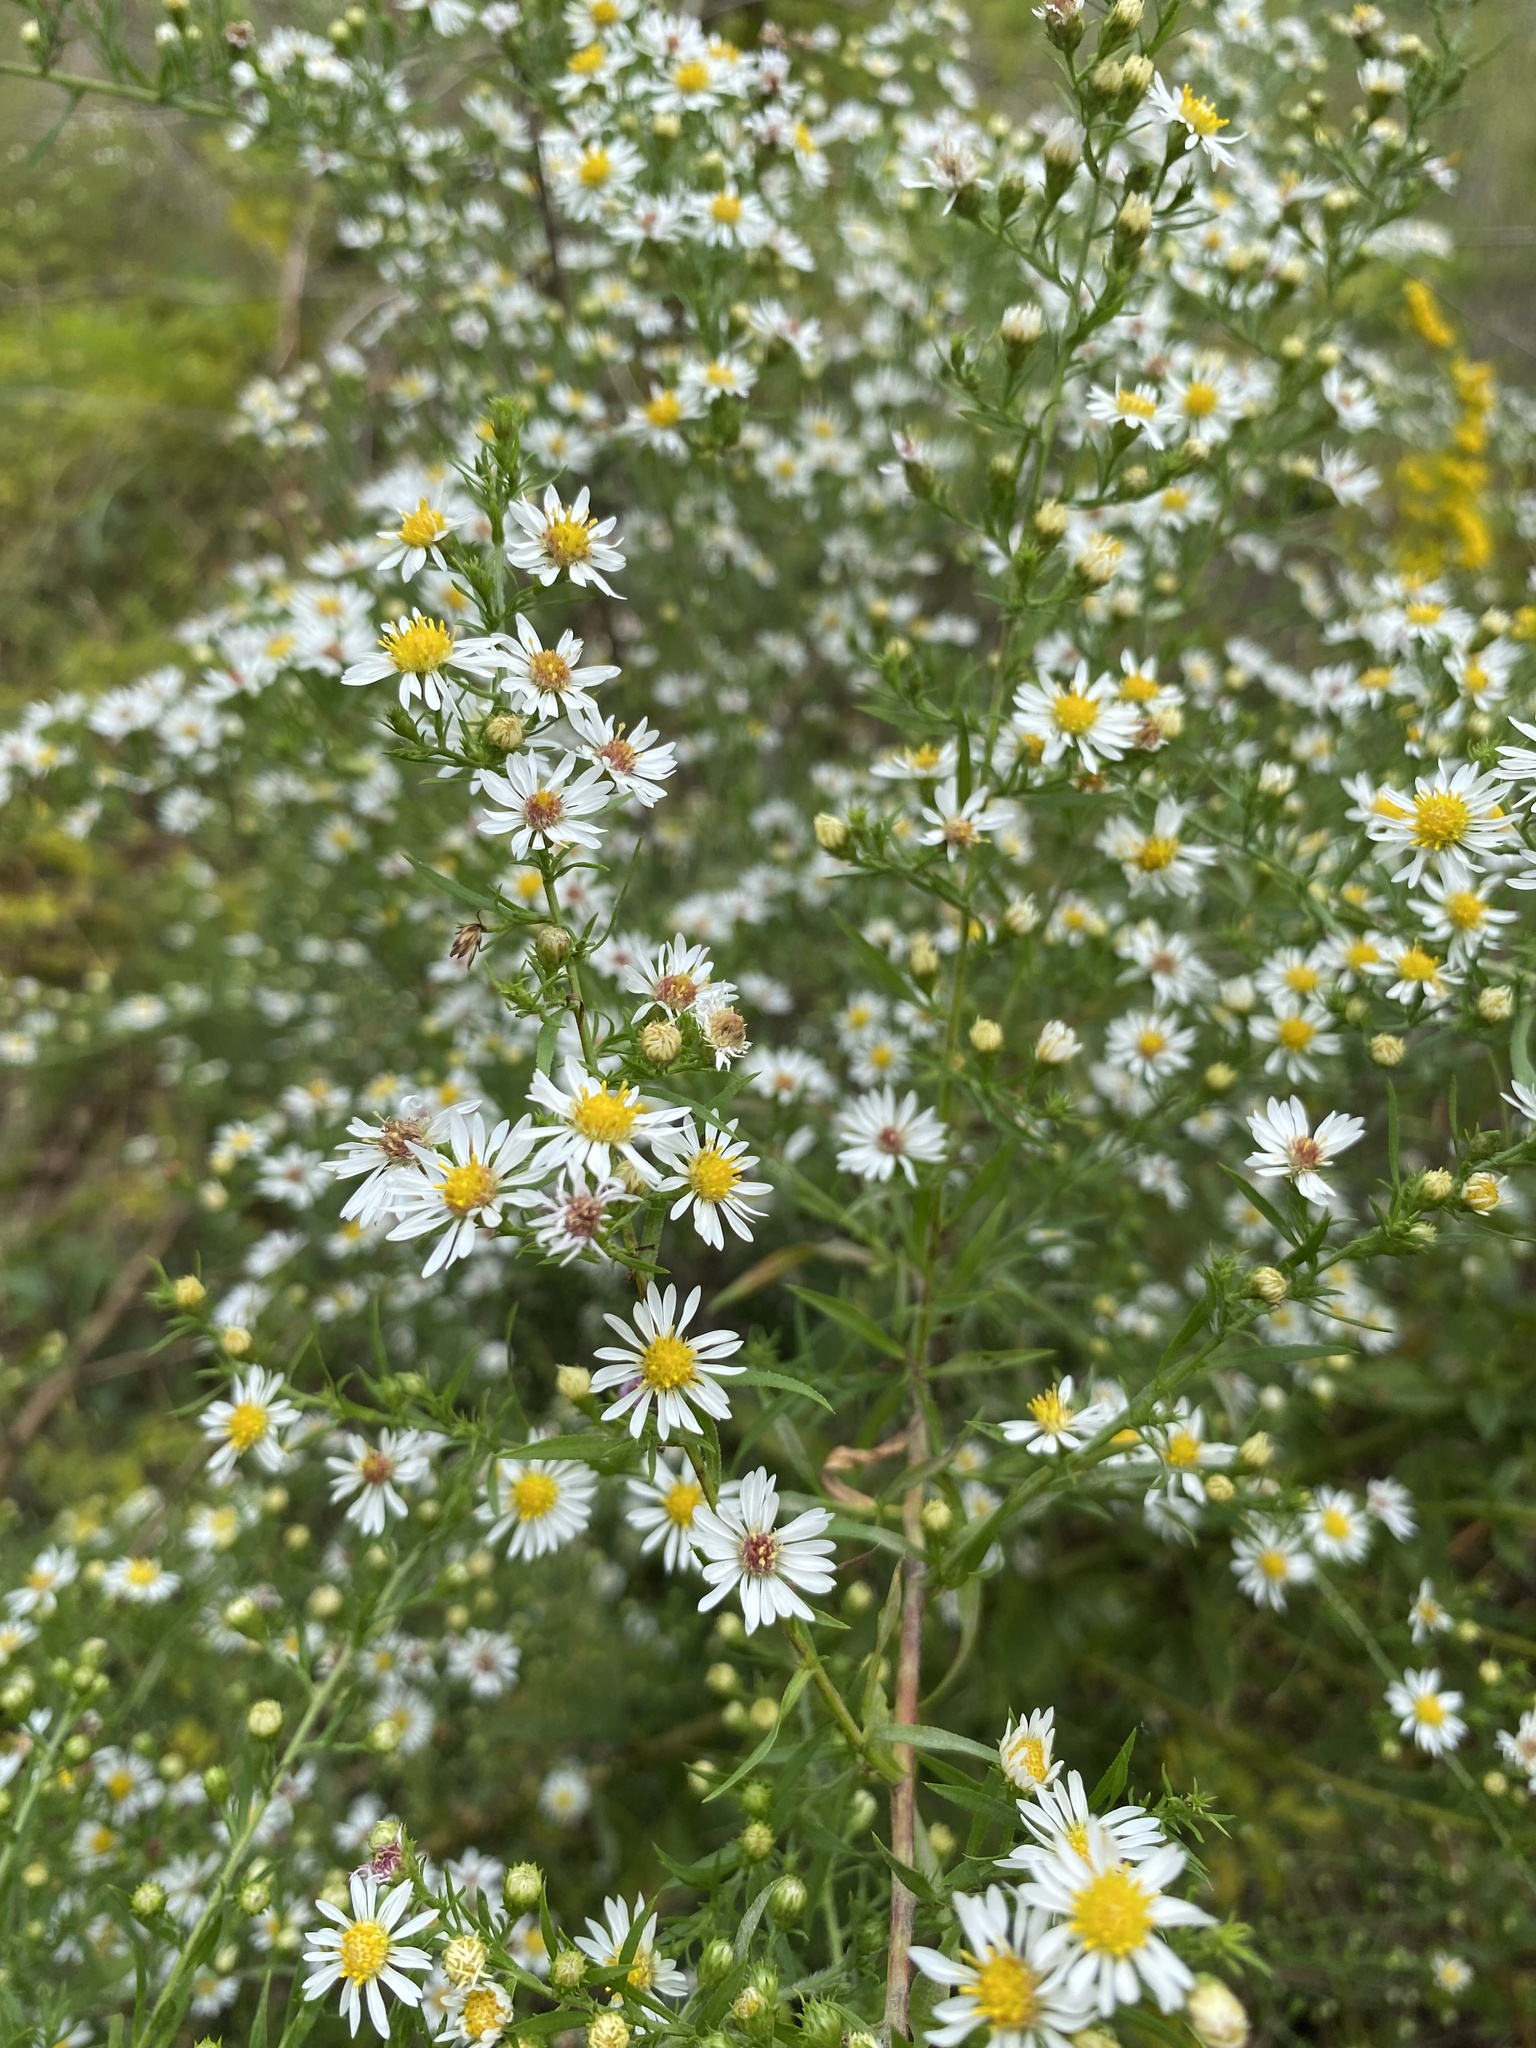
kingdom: Plantae
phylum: Tracheophyta
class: Magnoliopsida
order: Asterales
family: Asteraceae
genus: Symphyotrichum
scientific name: Symphyotrichum pilosum
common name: Awl aster
